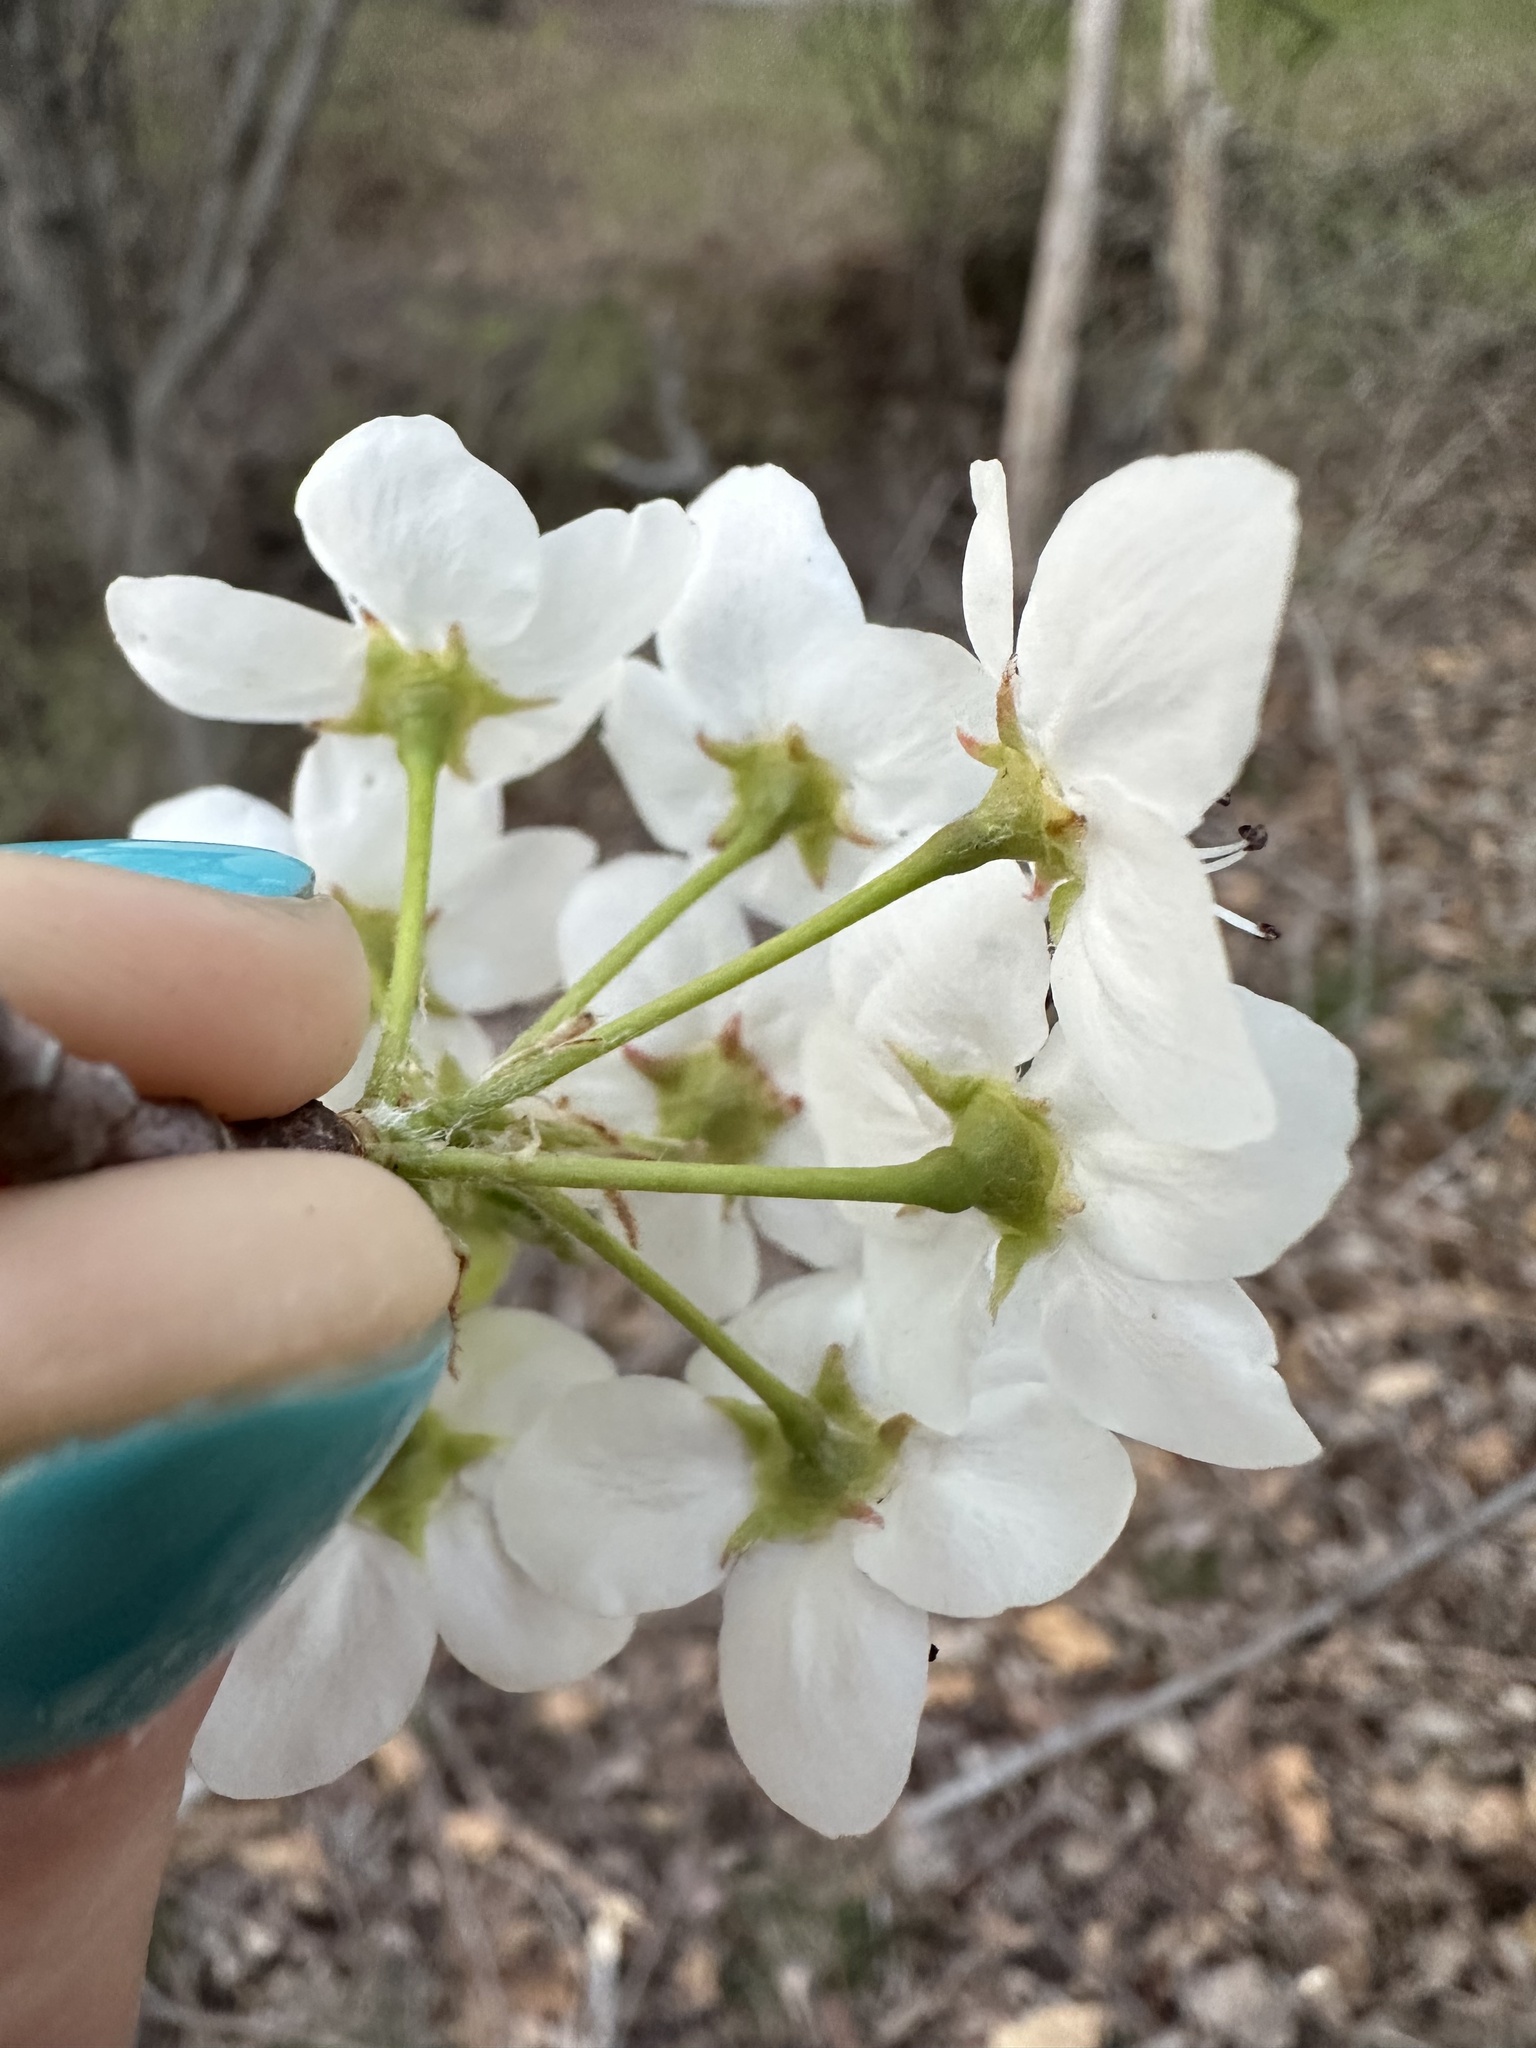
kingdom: Plantae
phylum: Tracheophyta
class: Magnoliopsida
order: Rosales
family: Rosaceae
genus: Pyrus
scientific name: Pyrus calleryana
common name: Callery pear
